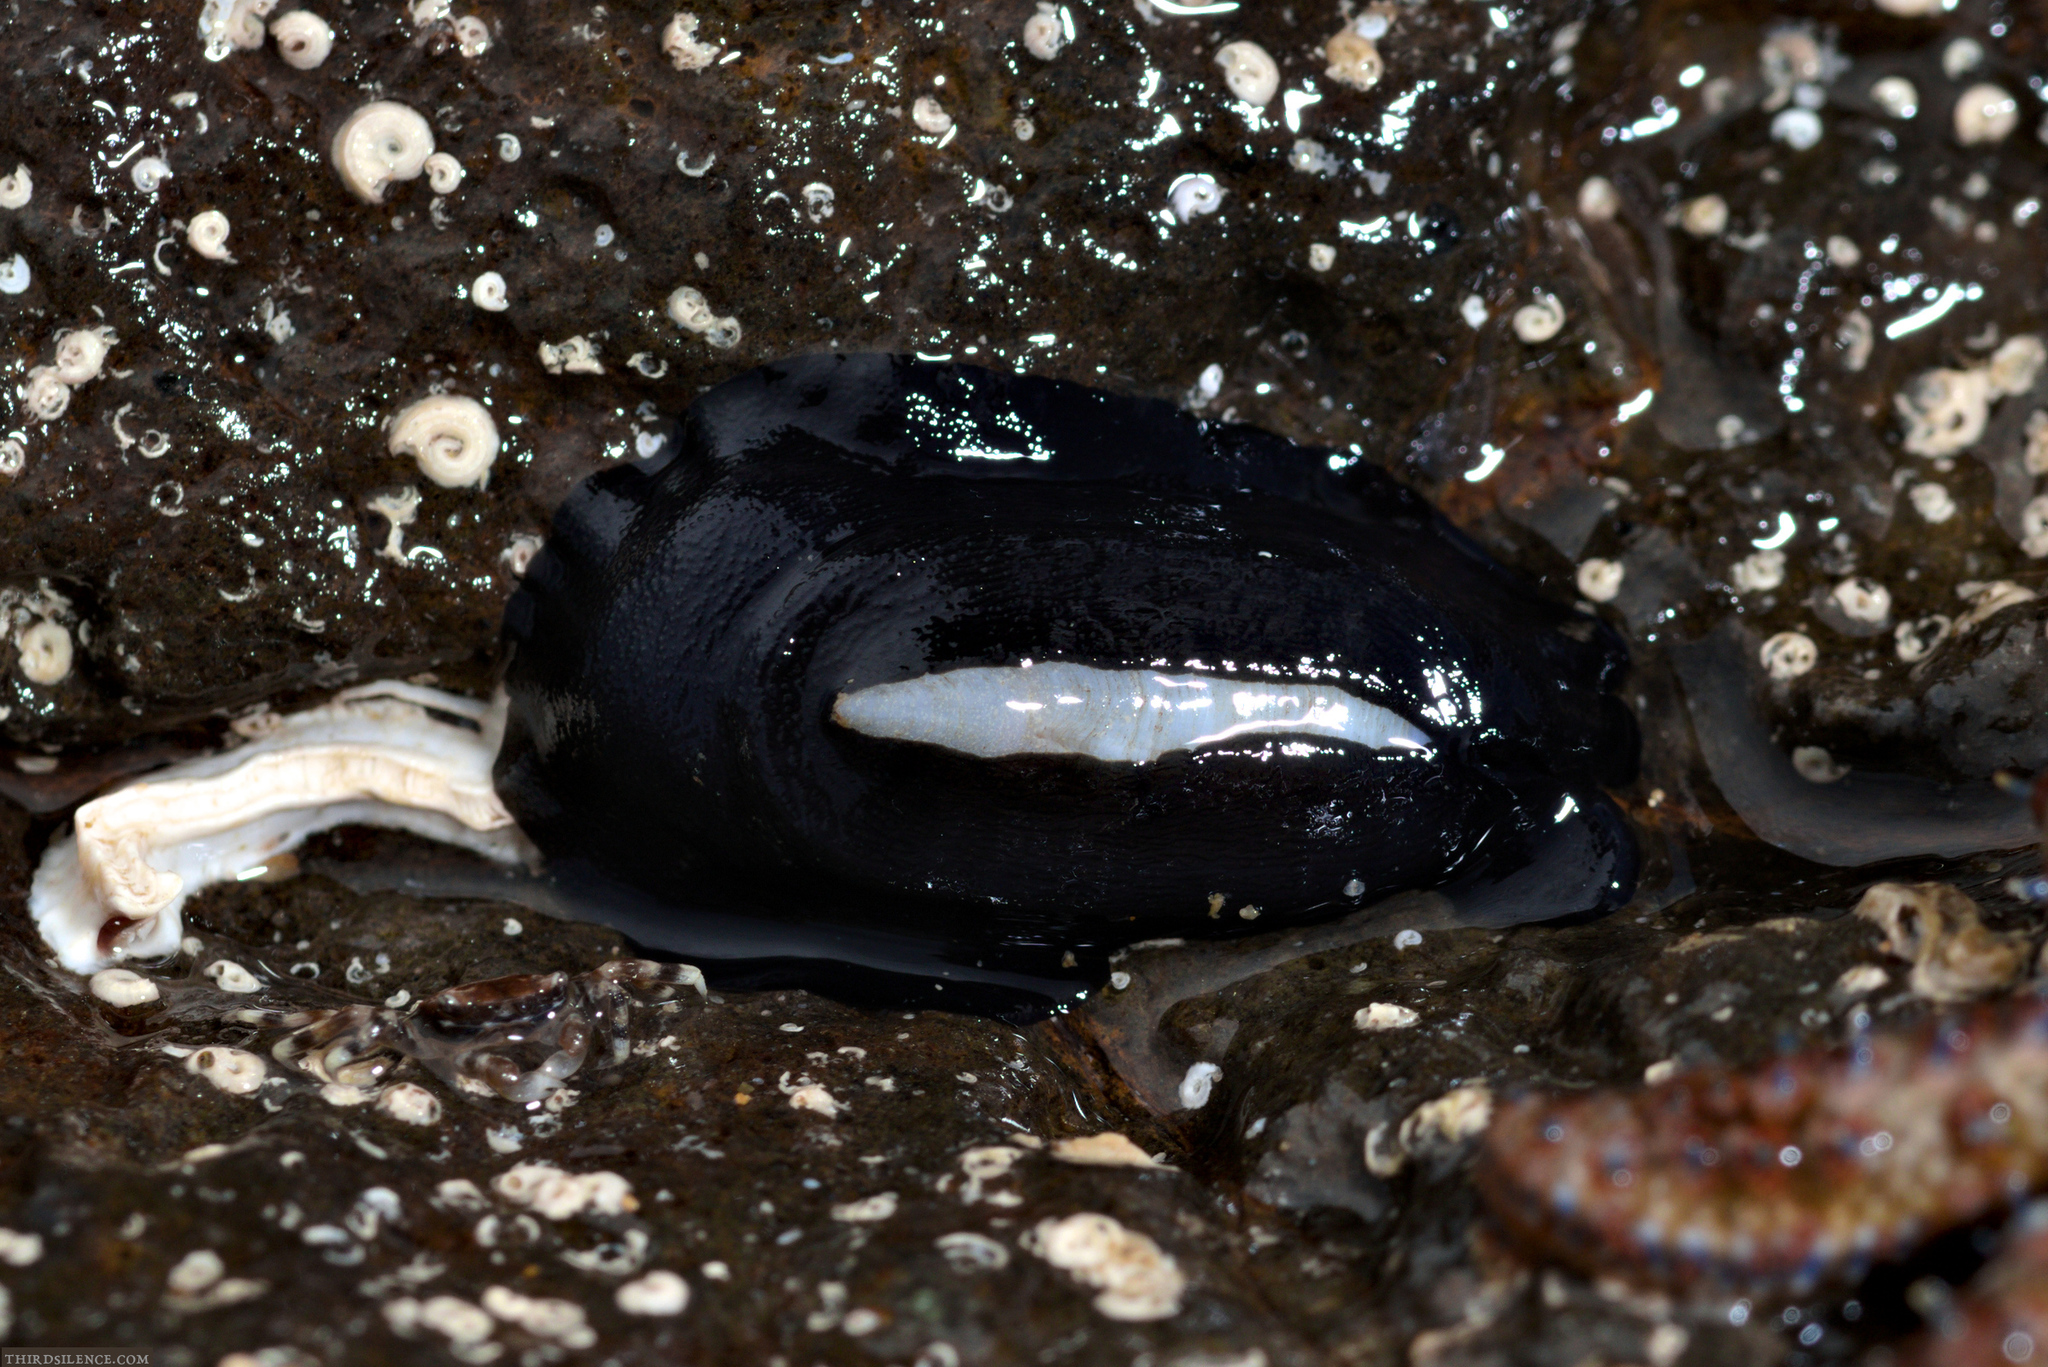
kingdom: Animalia
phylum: Mollusca
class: Gastropoda
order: Lepetellida
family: Fissurellidae
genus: Scutus
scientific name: Scutus antipodes
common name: Duckbill shell
